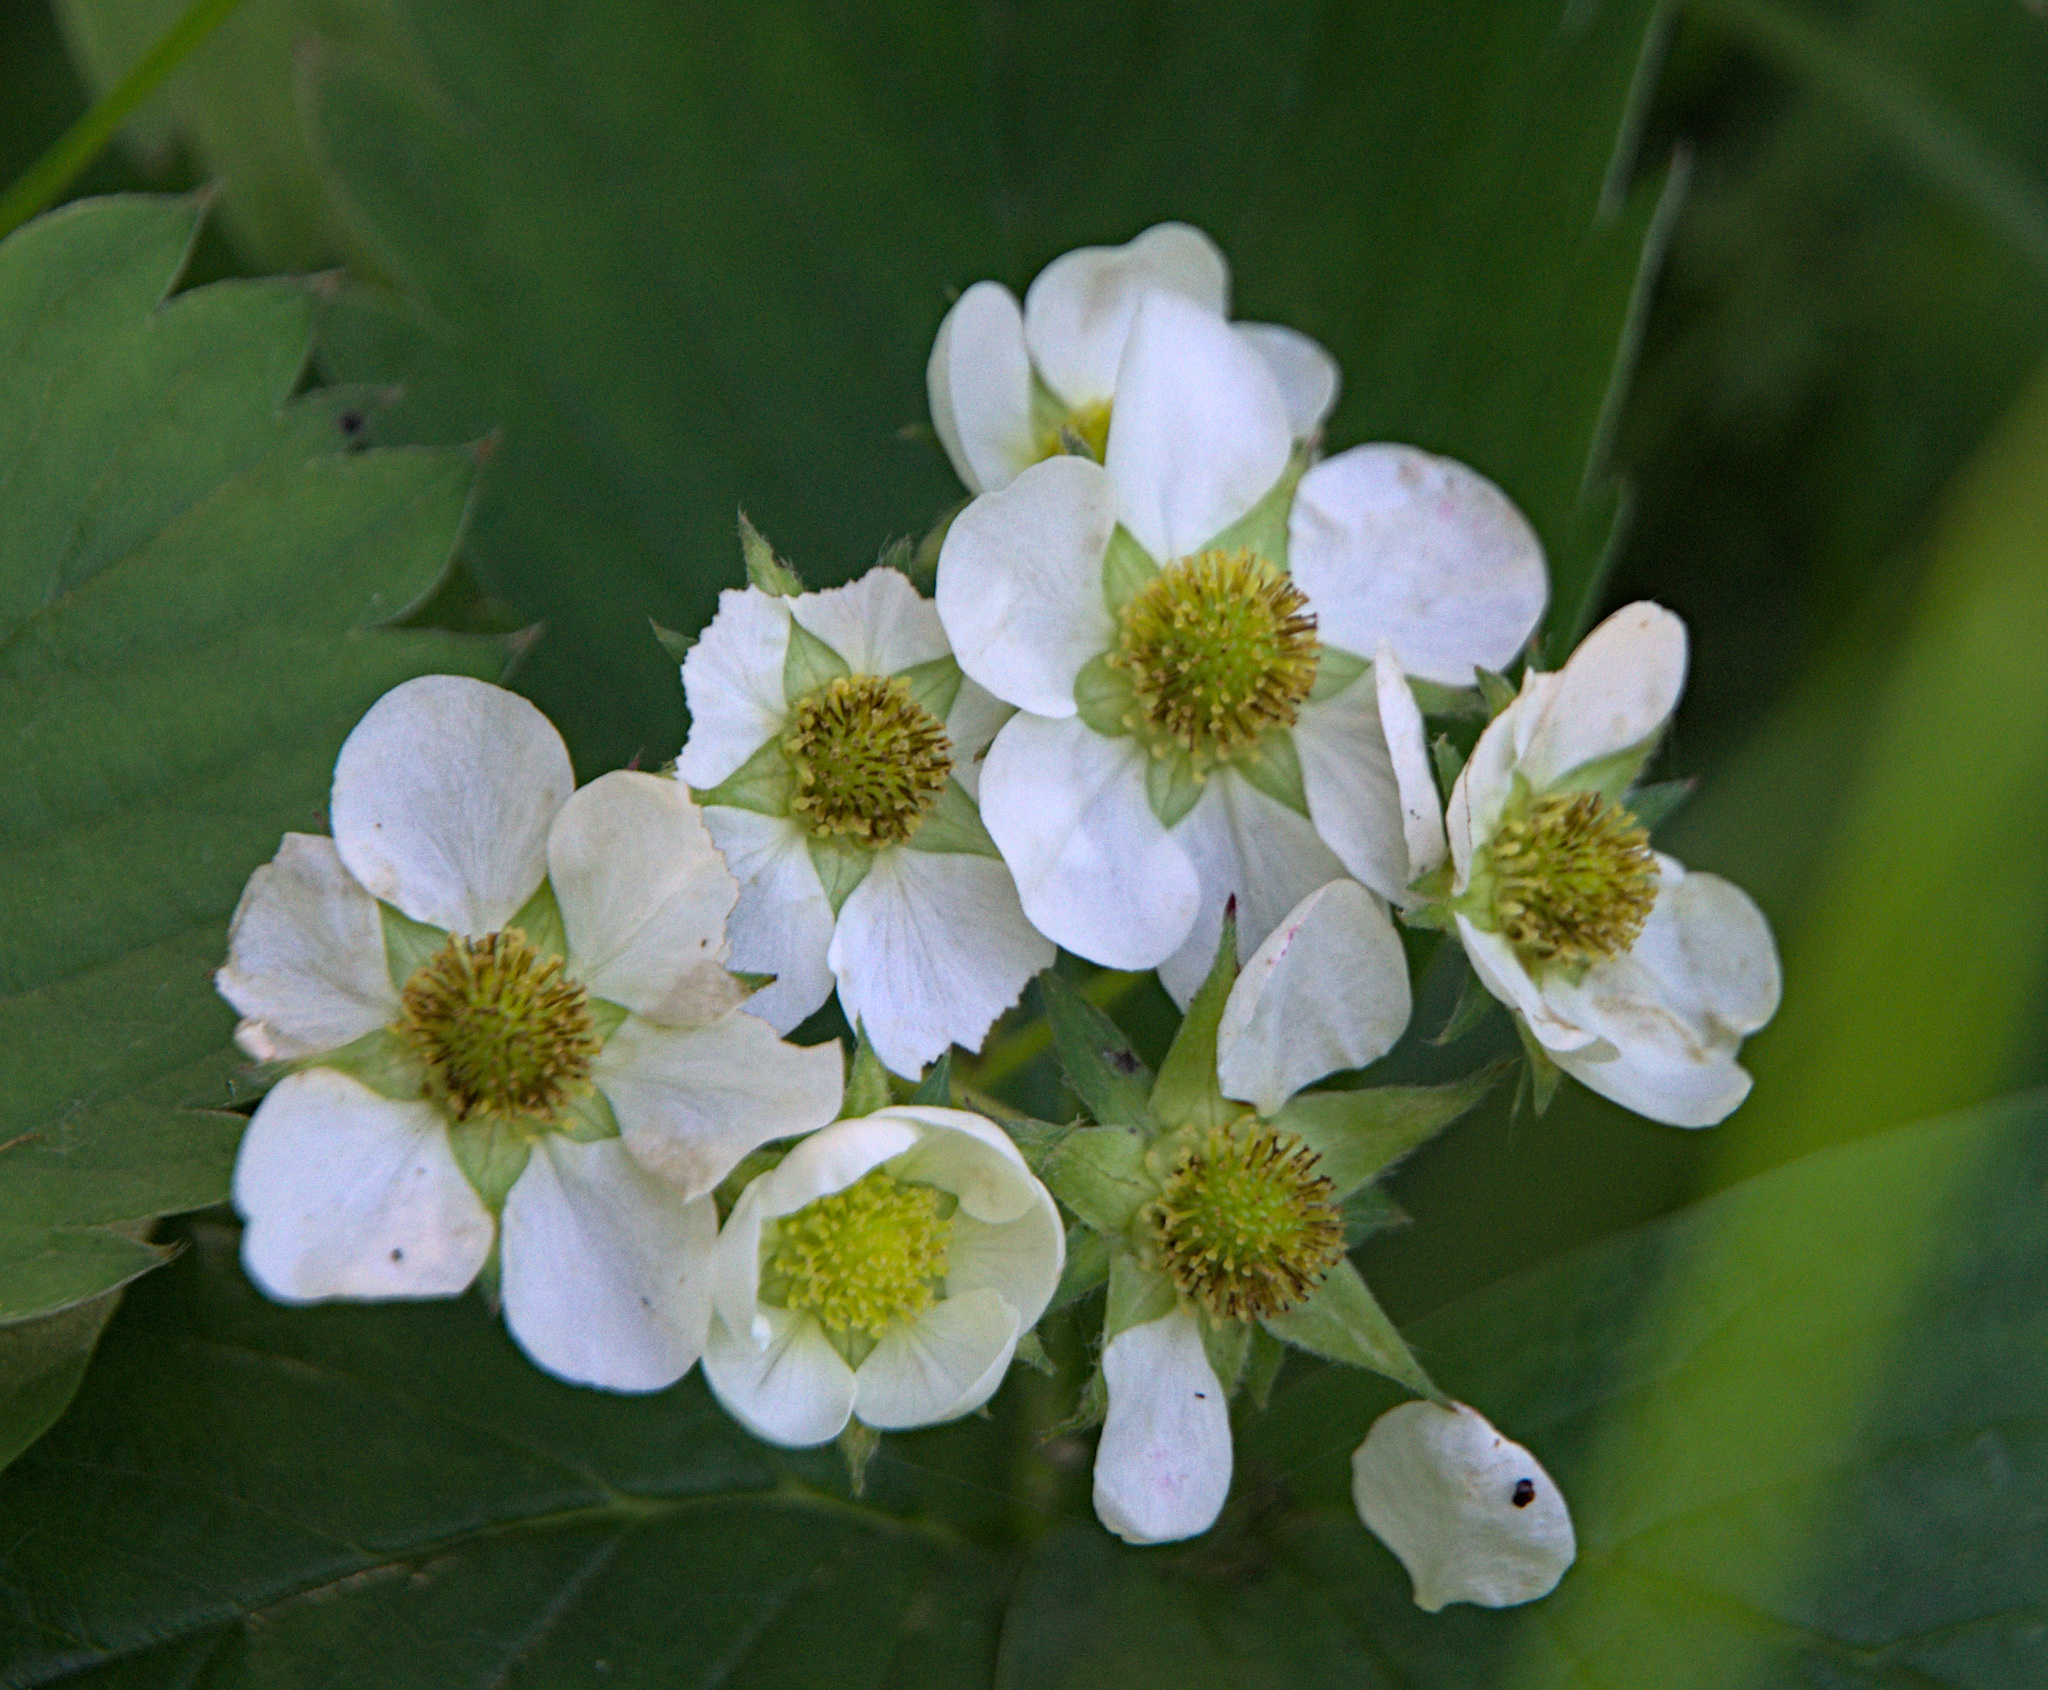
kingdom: Plantae
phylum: Tracheophyta
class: Magnoliopsida
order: Rosales
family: Rosaceae
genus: Fragaria
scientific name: Fragaria ananassa
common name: Garden strawberry
